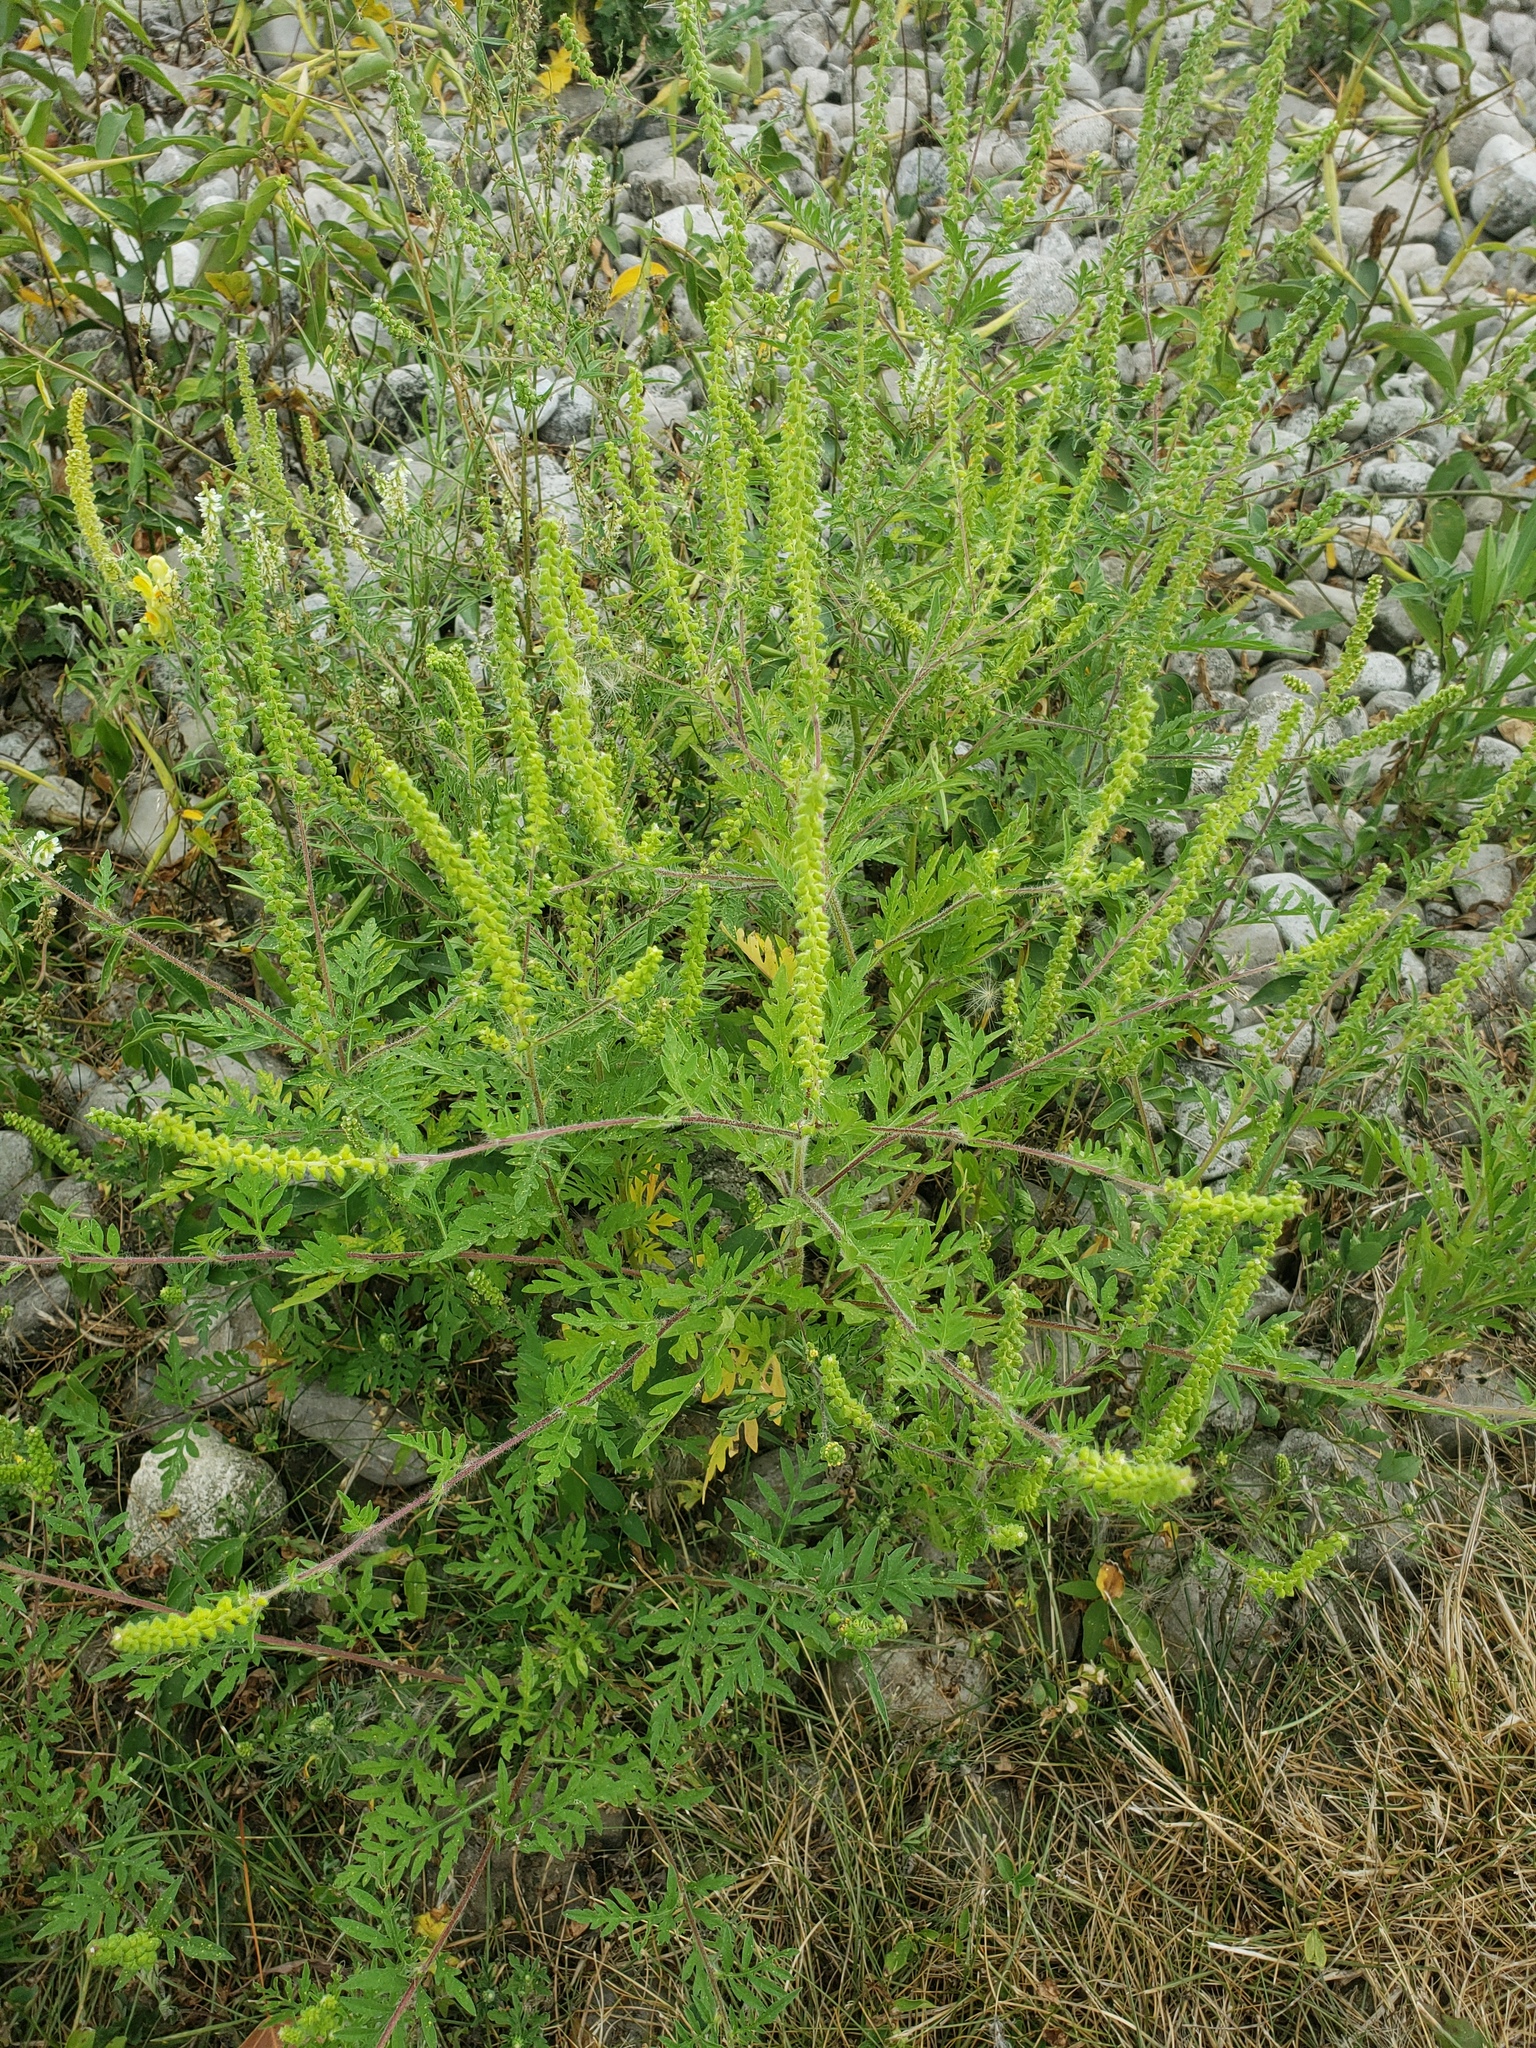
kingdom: Plantae
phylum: Tracheophyta
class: Magnoliopsida
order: Asterales
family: Asteraceae
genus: Ambrosia
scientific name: Ambrosia artemisiifolia
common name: Annual ragweed
